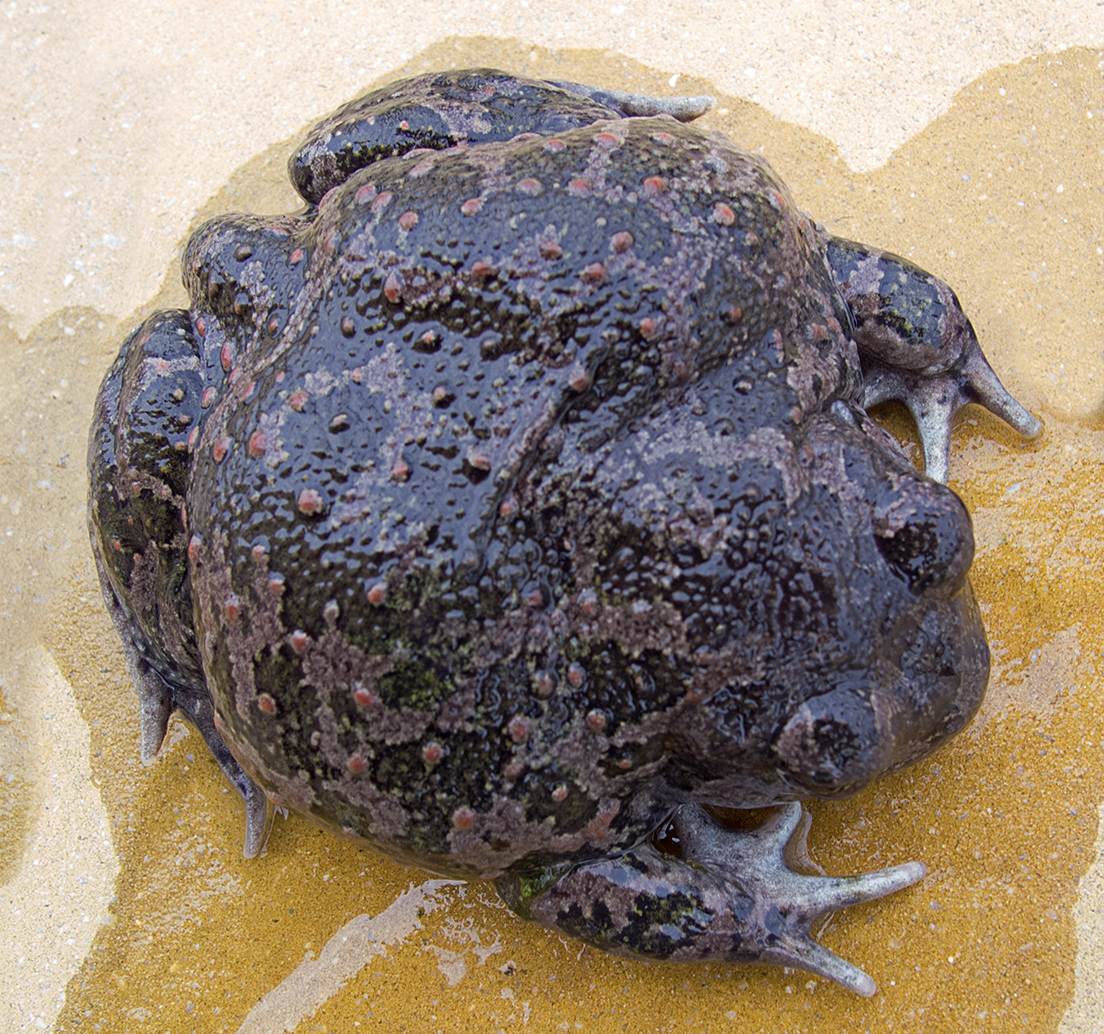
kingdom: Animalia
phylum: Chordata
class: Amphibia
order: Anura
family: Pelobatidae
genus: Pelobates
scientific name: Pelobates balcanicus
